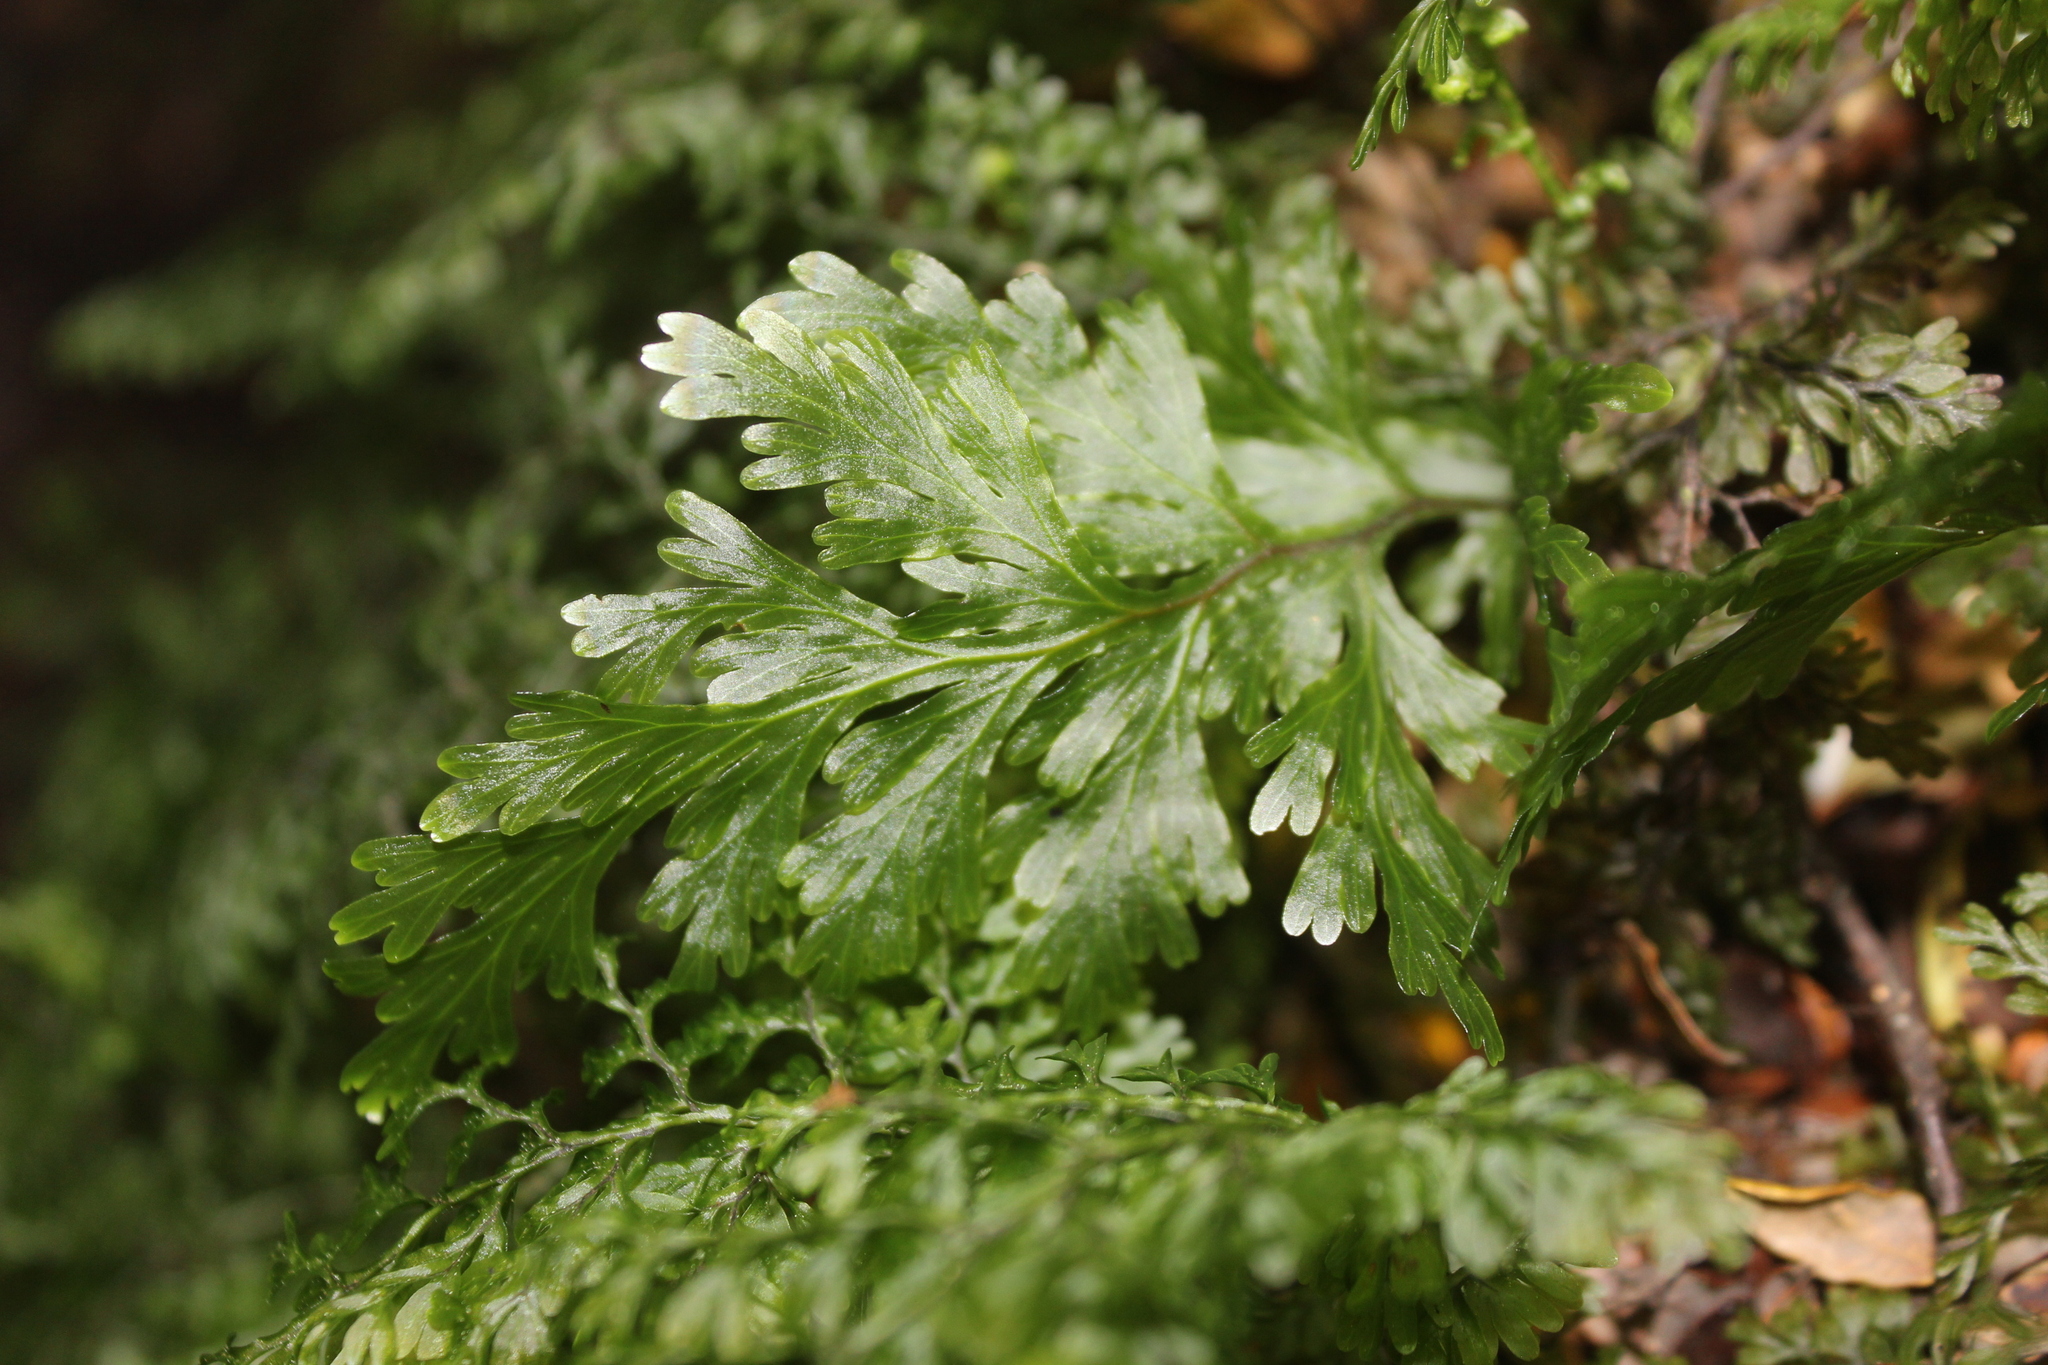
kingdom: Plantae
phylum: Tracheophyta
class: Polypodiopsida
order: Hymenophyllales
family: Hymenophyllaceae
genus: Hymenophyllum
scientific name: Hymenophyllum dilatatum
